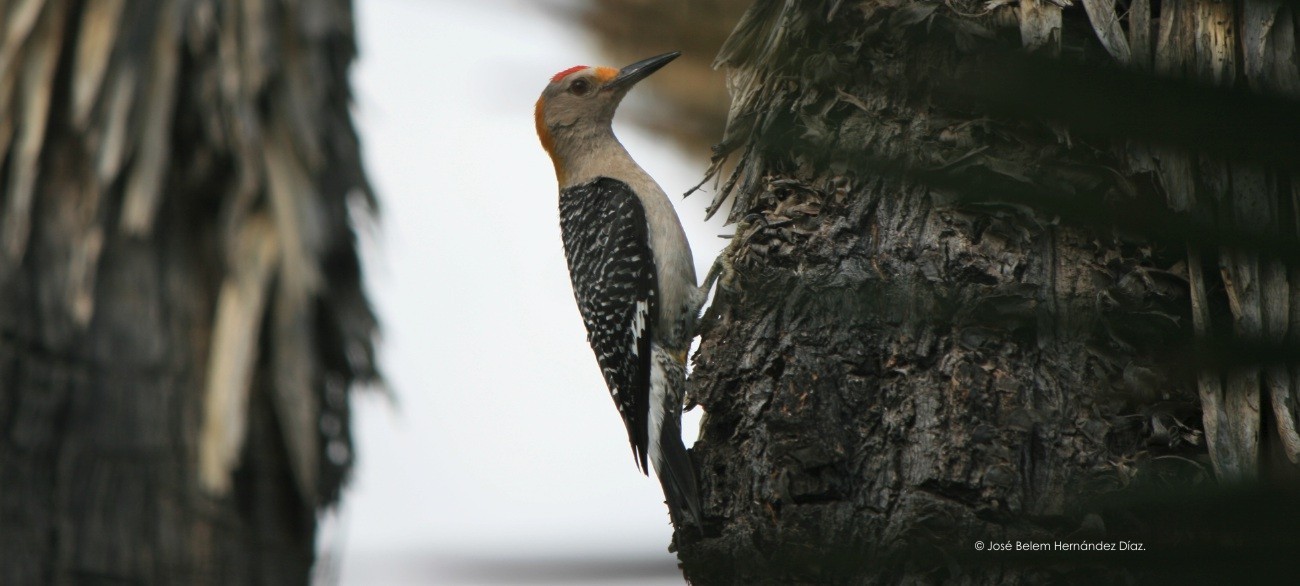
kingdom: Animalia
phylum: Chordata
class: Aves
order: Piciformes
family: Picidae
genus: Melanerpes
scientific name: Melanerpes aurifrons
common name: Golden-fronted woodpecker
